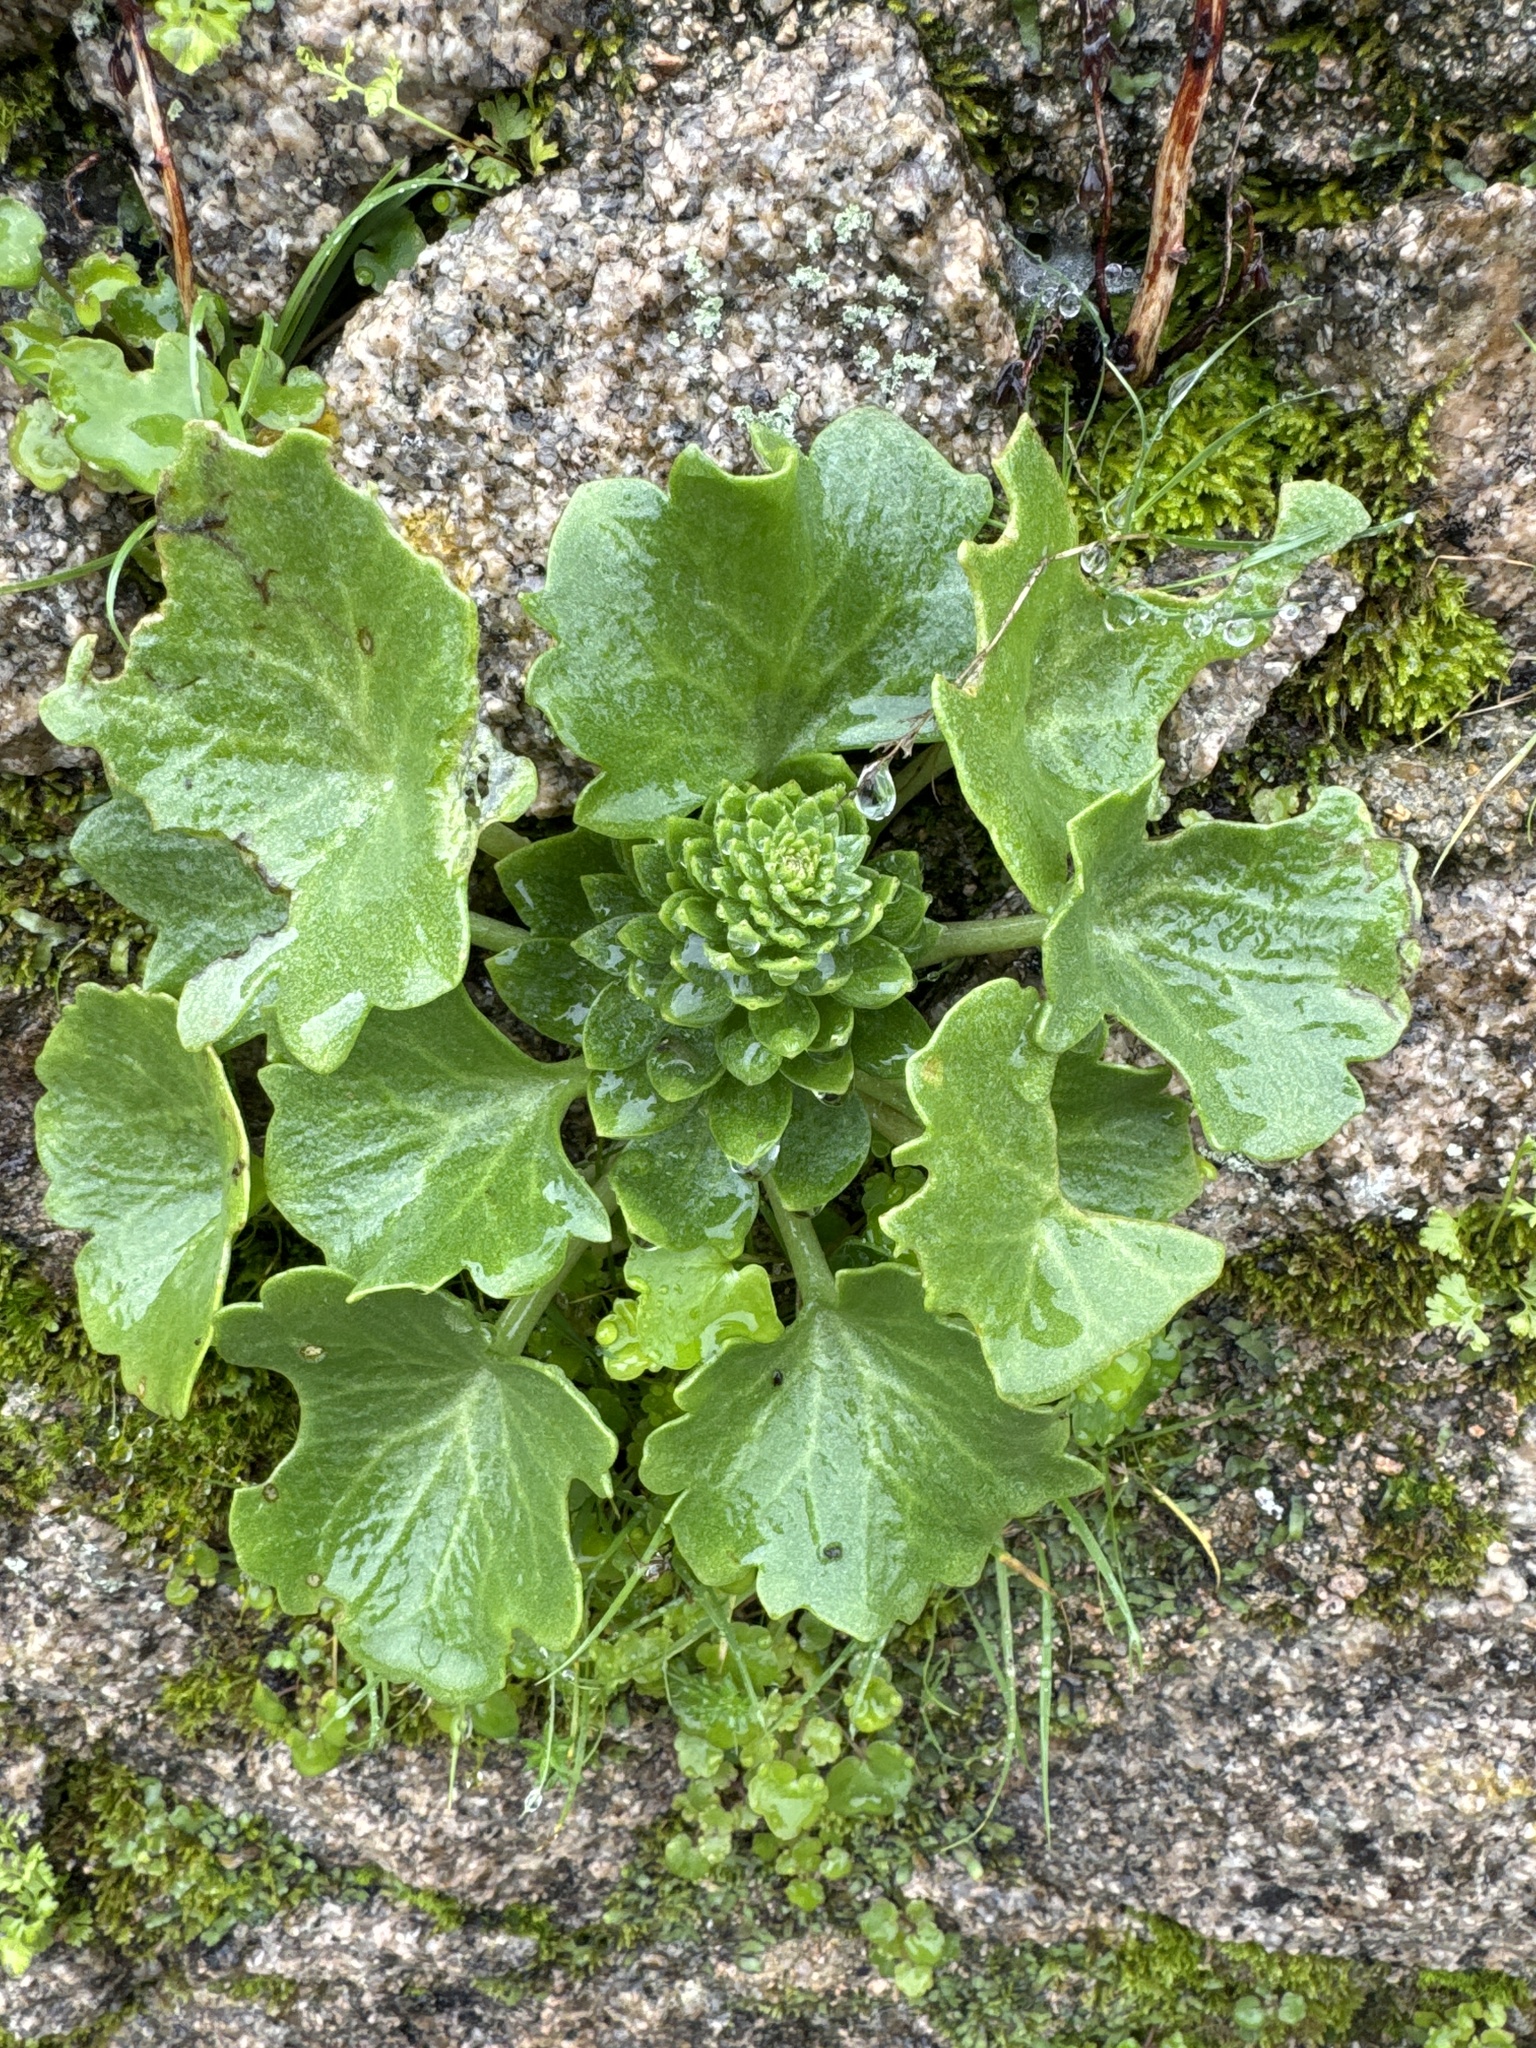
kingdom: Plantae
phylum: Tracheophyta
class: Magnoliopsida
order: Saxifragales
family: Crassulaceae
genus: Umbilicus
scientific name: Umbilicus rupestris
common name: Navelwort
